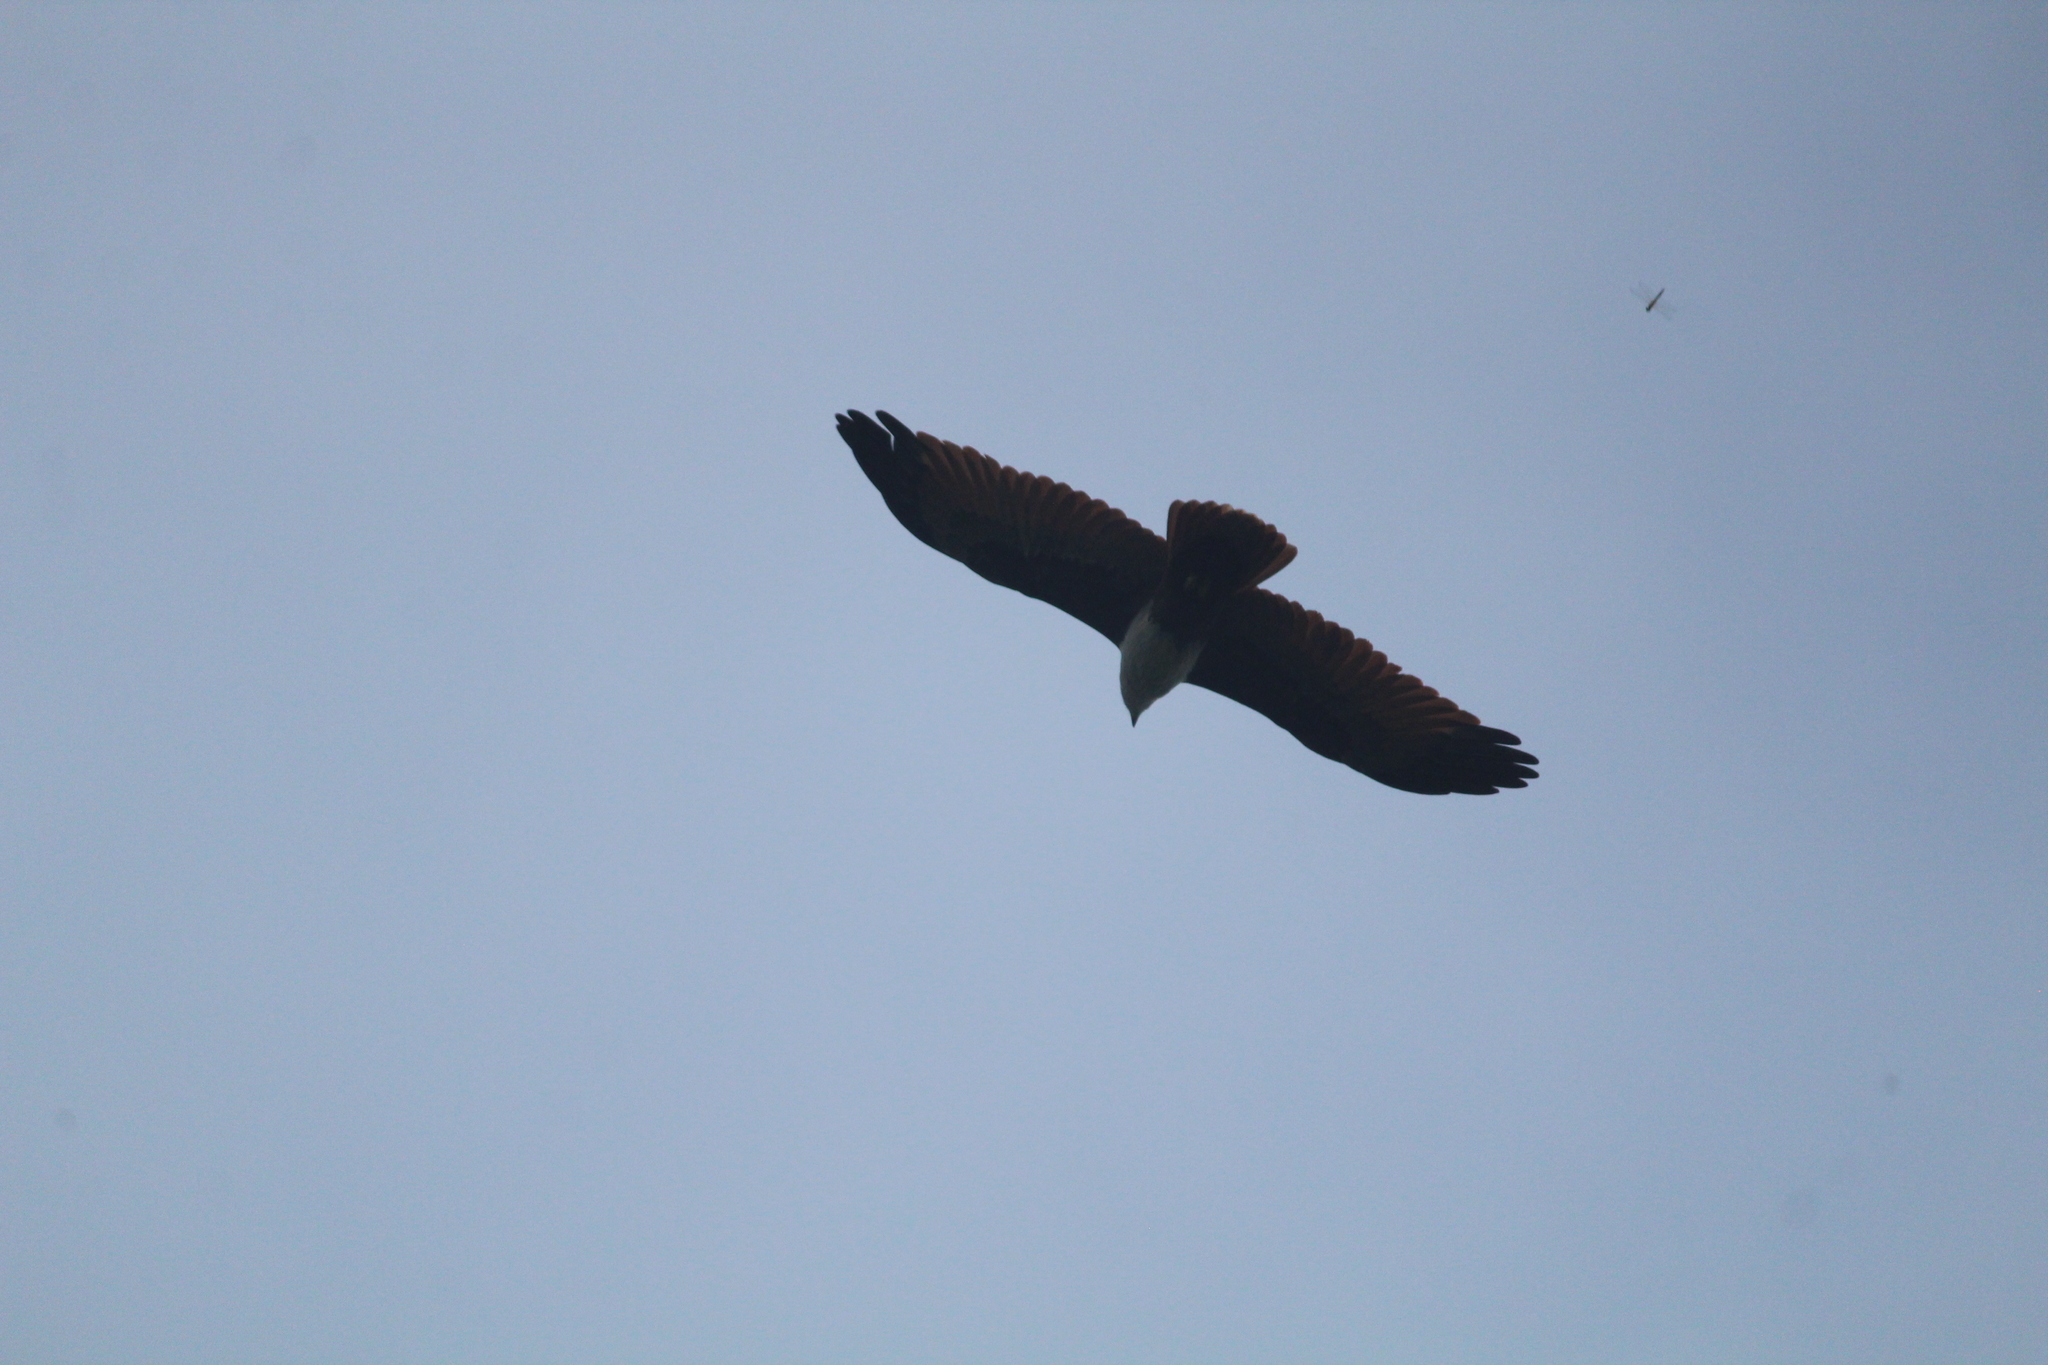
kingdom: Animalia
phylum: Chordata
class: Aves
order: Accipitriformes
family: Accipitridae
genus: Haliastur
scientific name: Haliastur indus
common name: Brahminy kite
